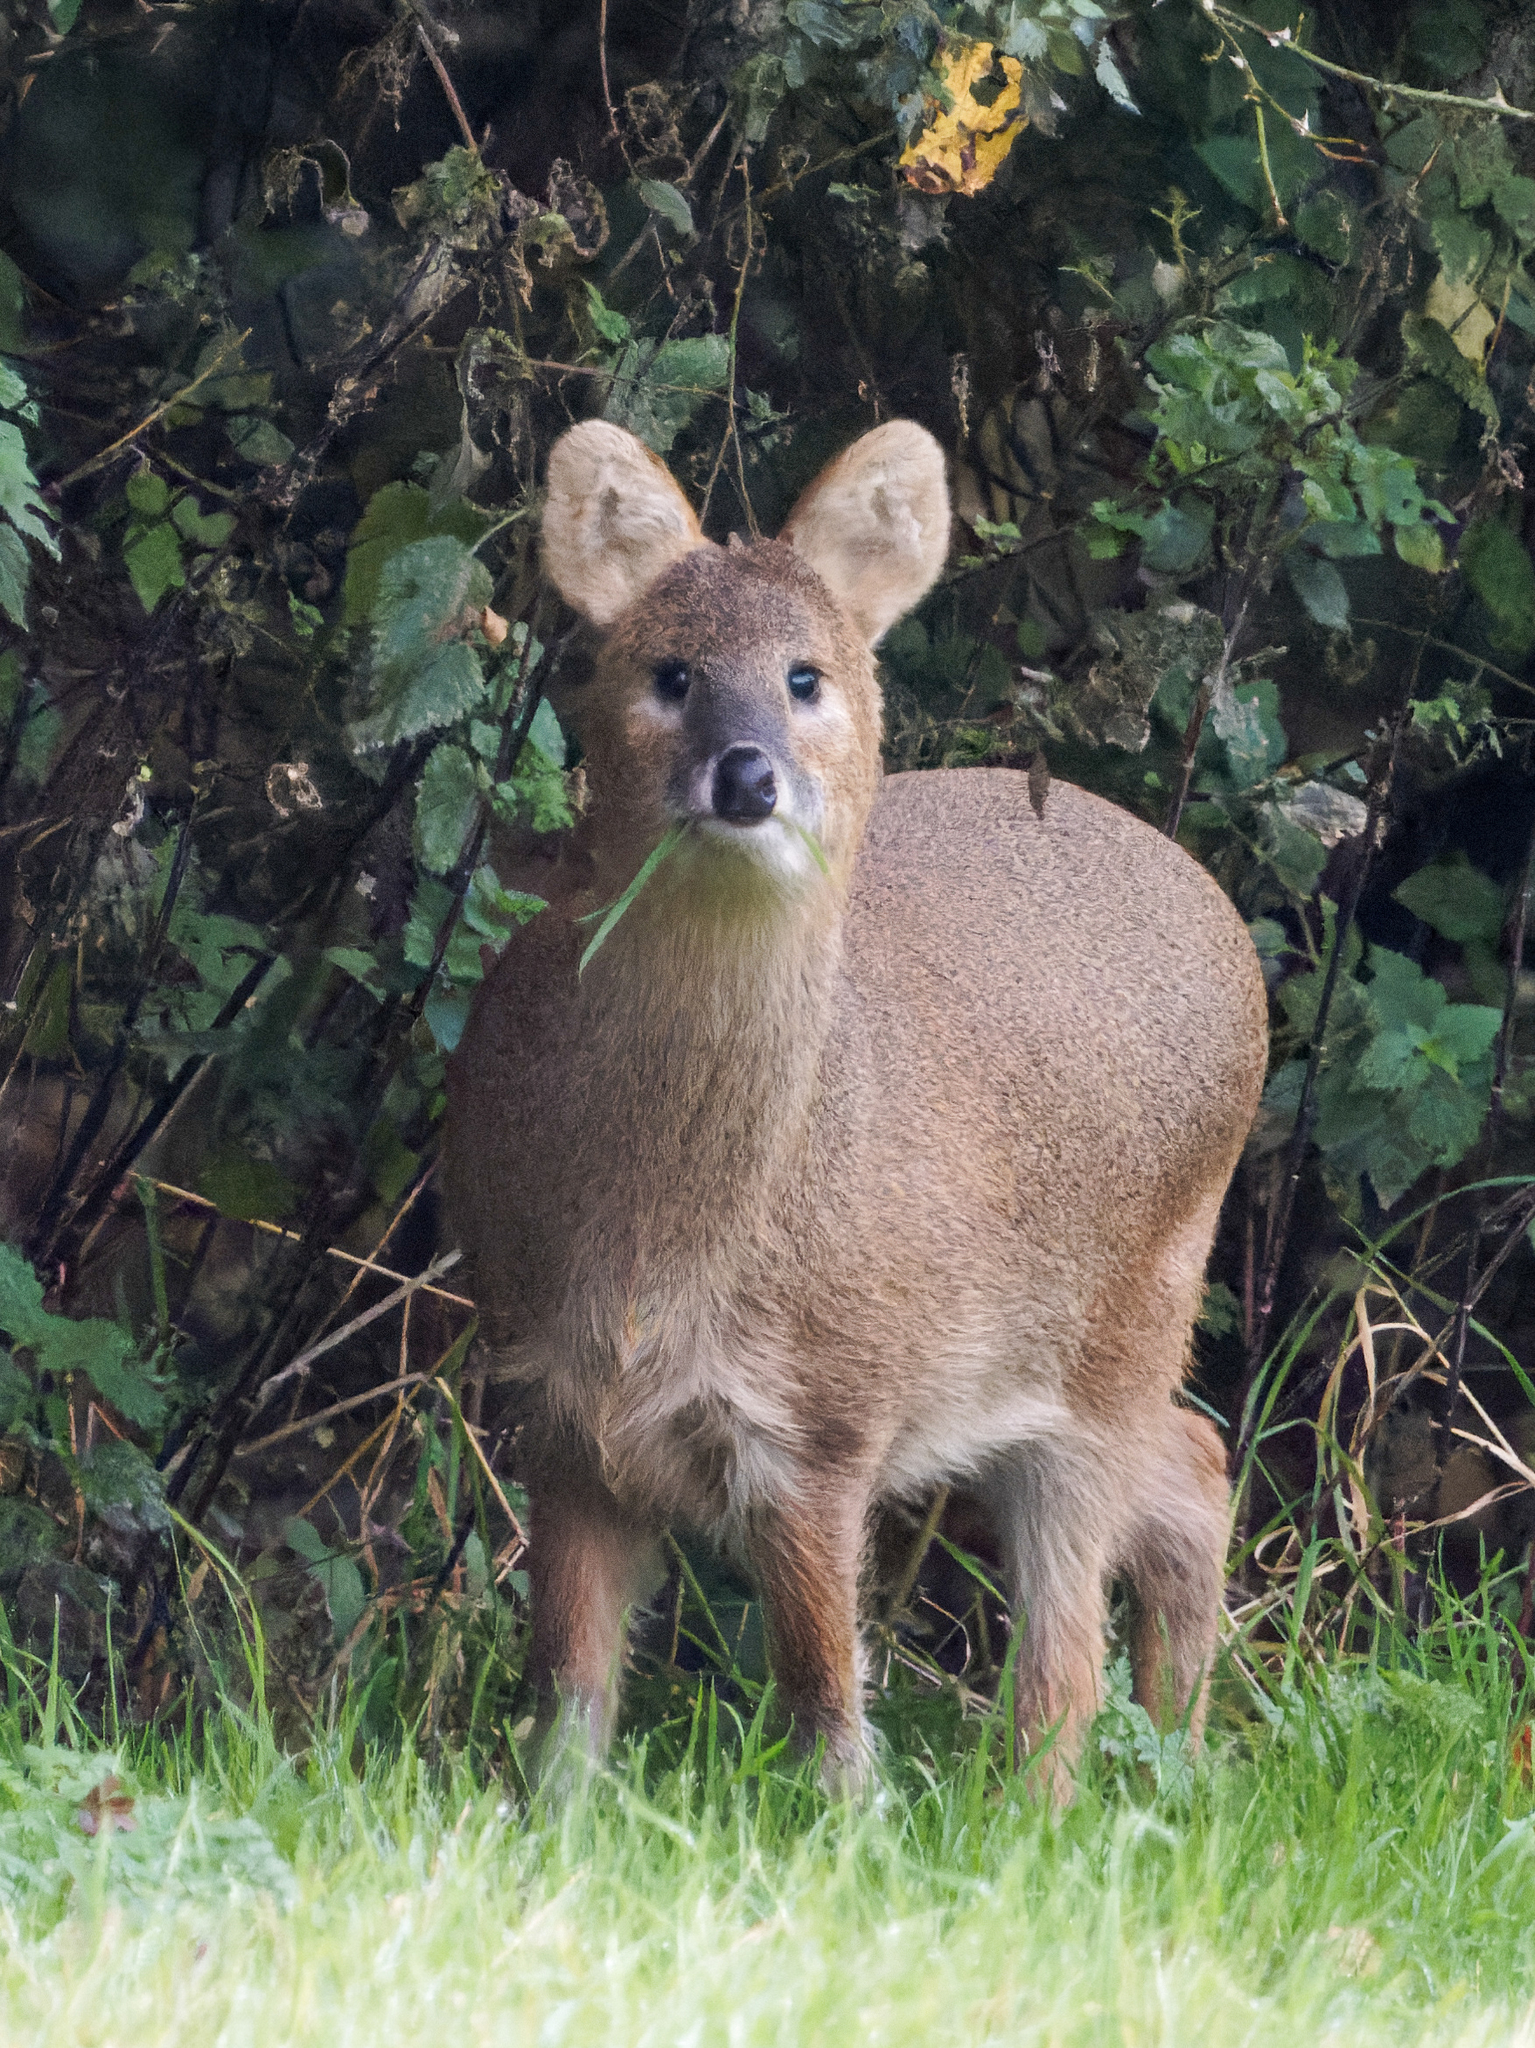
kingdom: Animalia
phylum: Chordata
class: Mammalia
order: Artiodactyla
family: Cervidae
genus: Hydropotes
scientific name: Hydropotes inermis
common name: Chinese water deer
